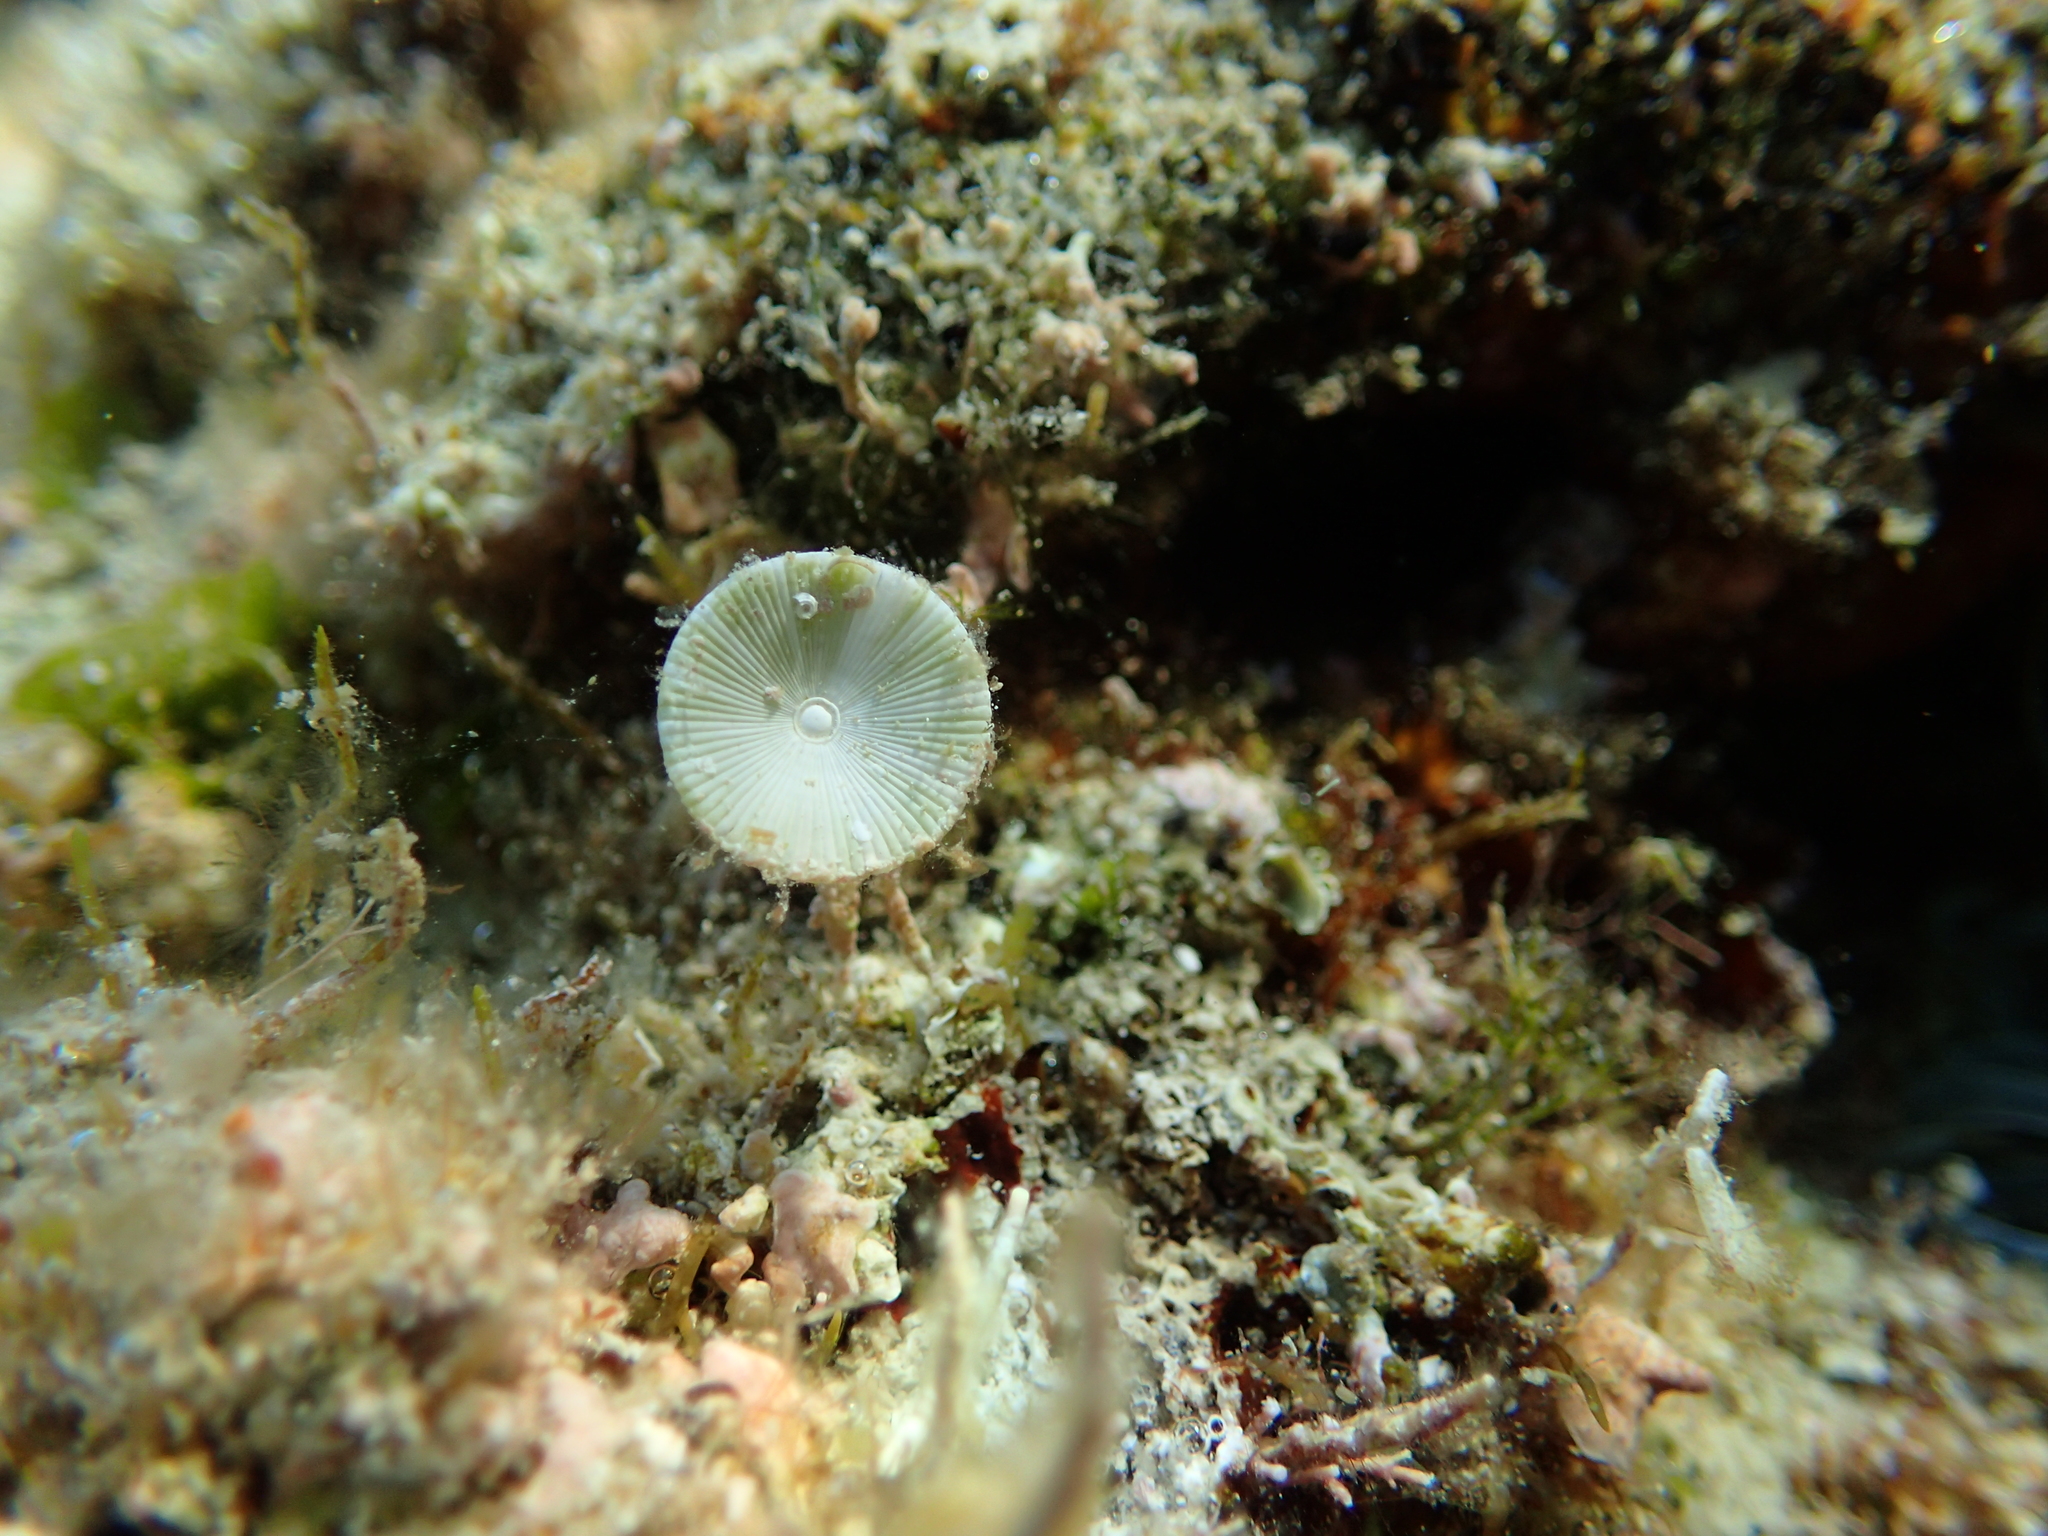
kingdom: Plantae
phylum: Chlorophyta
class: Ulvophyceae
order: Dasycladales
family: Polyphysaceae
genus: Acetabularia
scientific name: Acetabularia acetabulum
